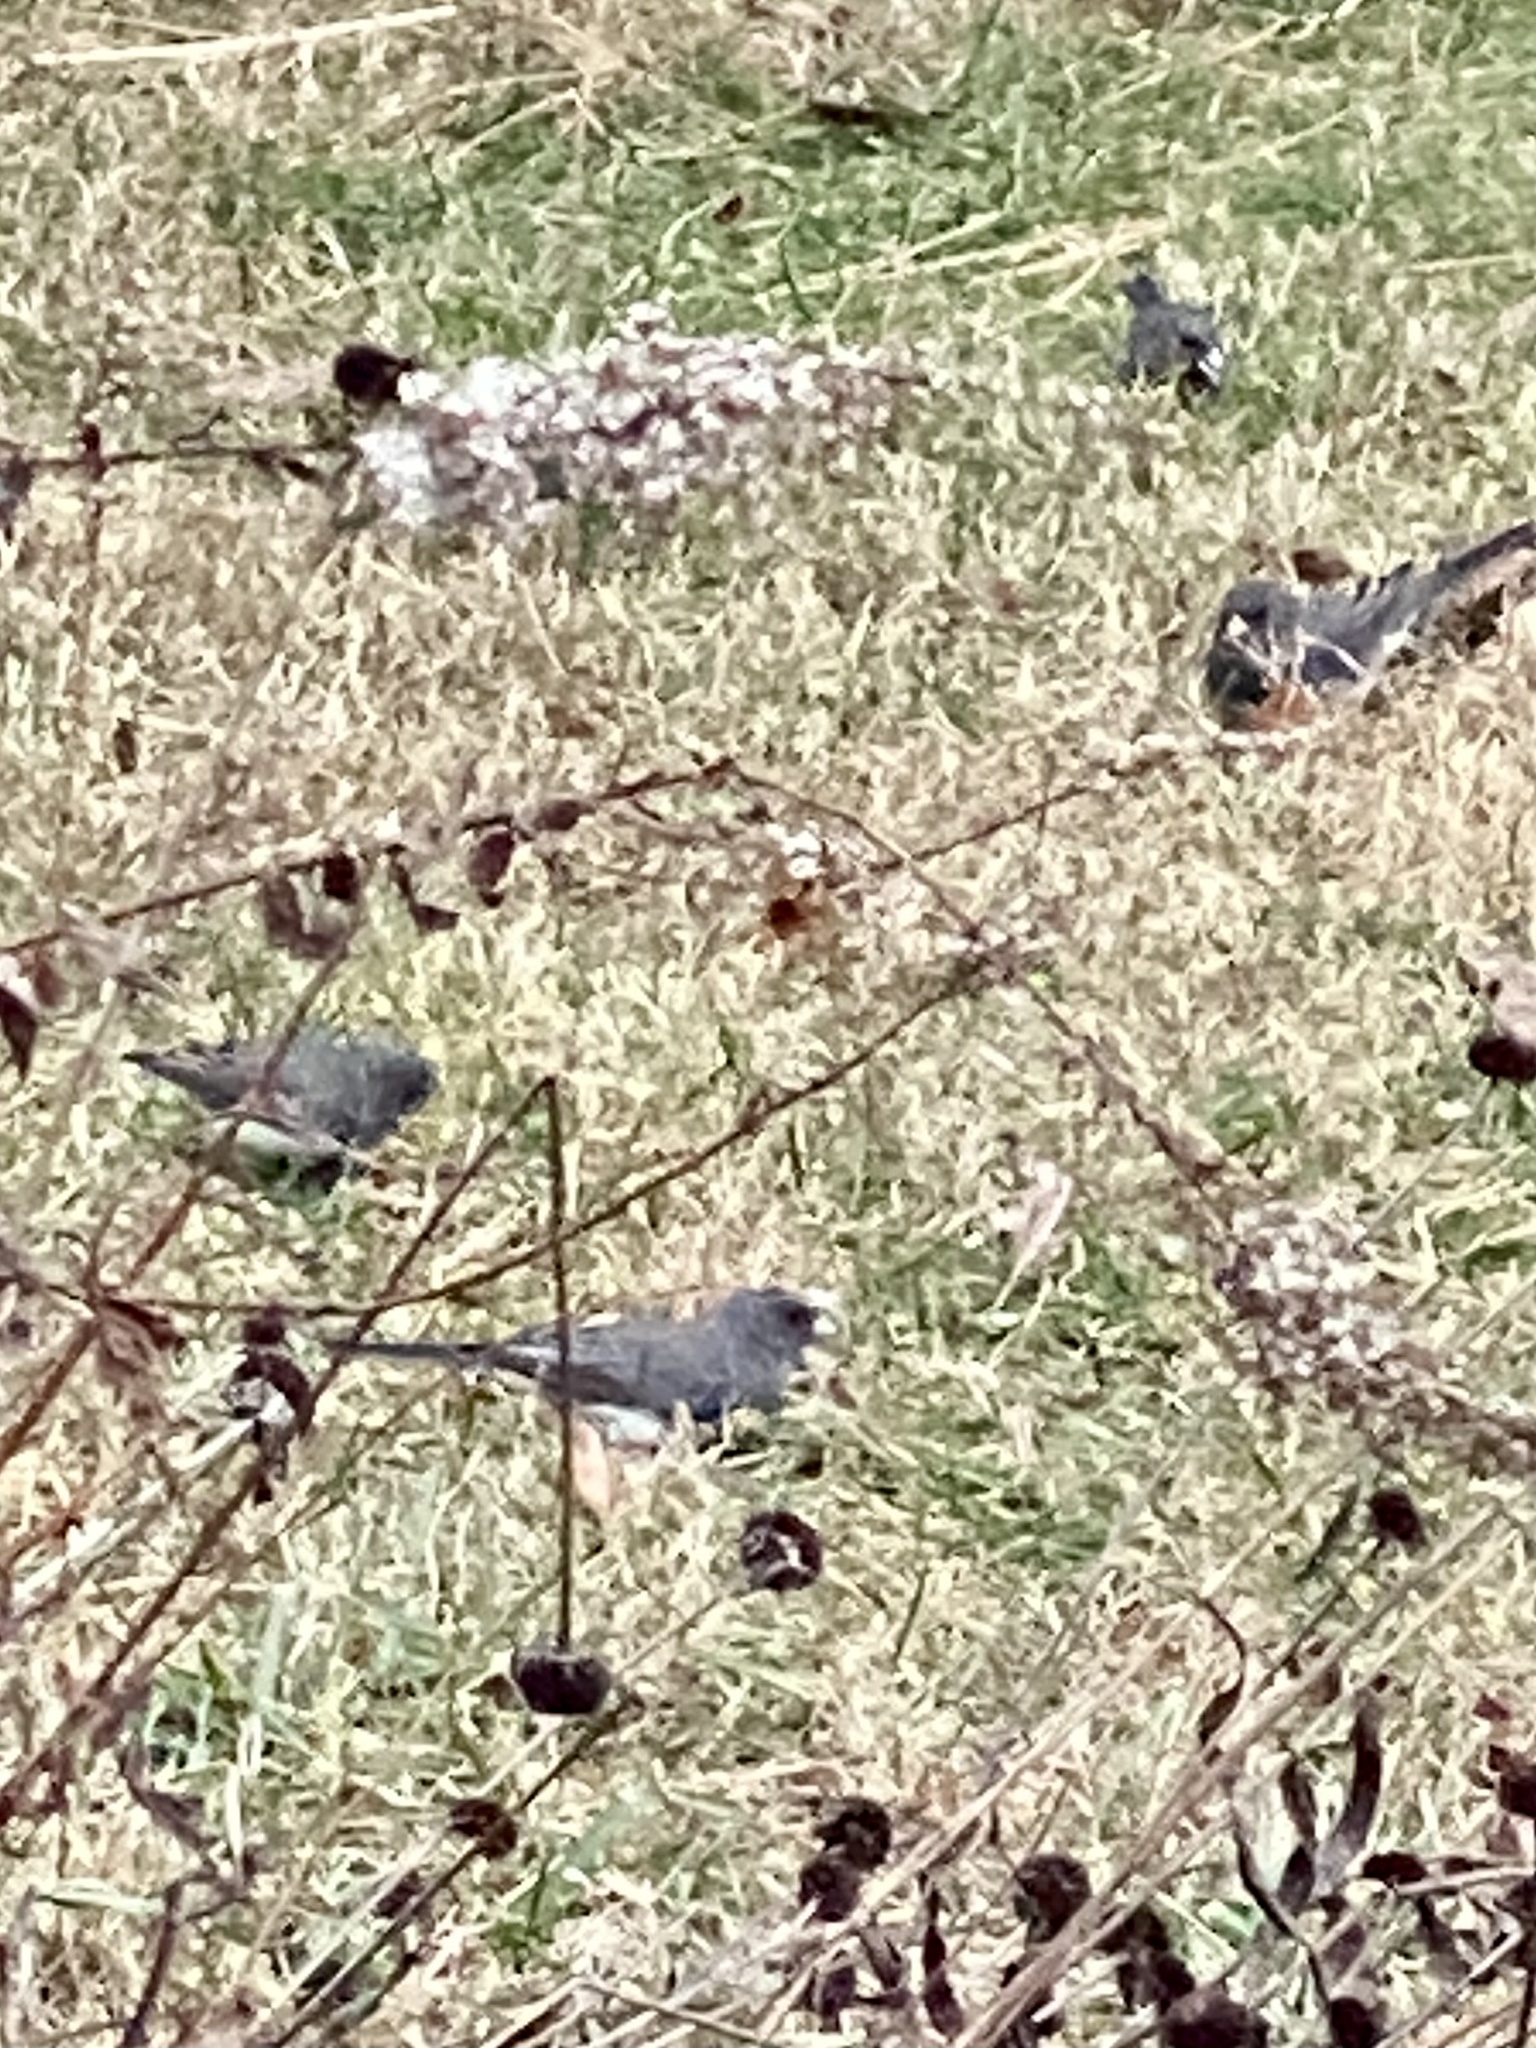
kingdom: Animalia
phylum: Chordata
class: Aves
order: Passeriformes
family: Passerellidae
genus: Junco
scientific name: Junco hyemalis
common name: Dark-eyed junco
